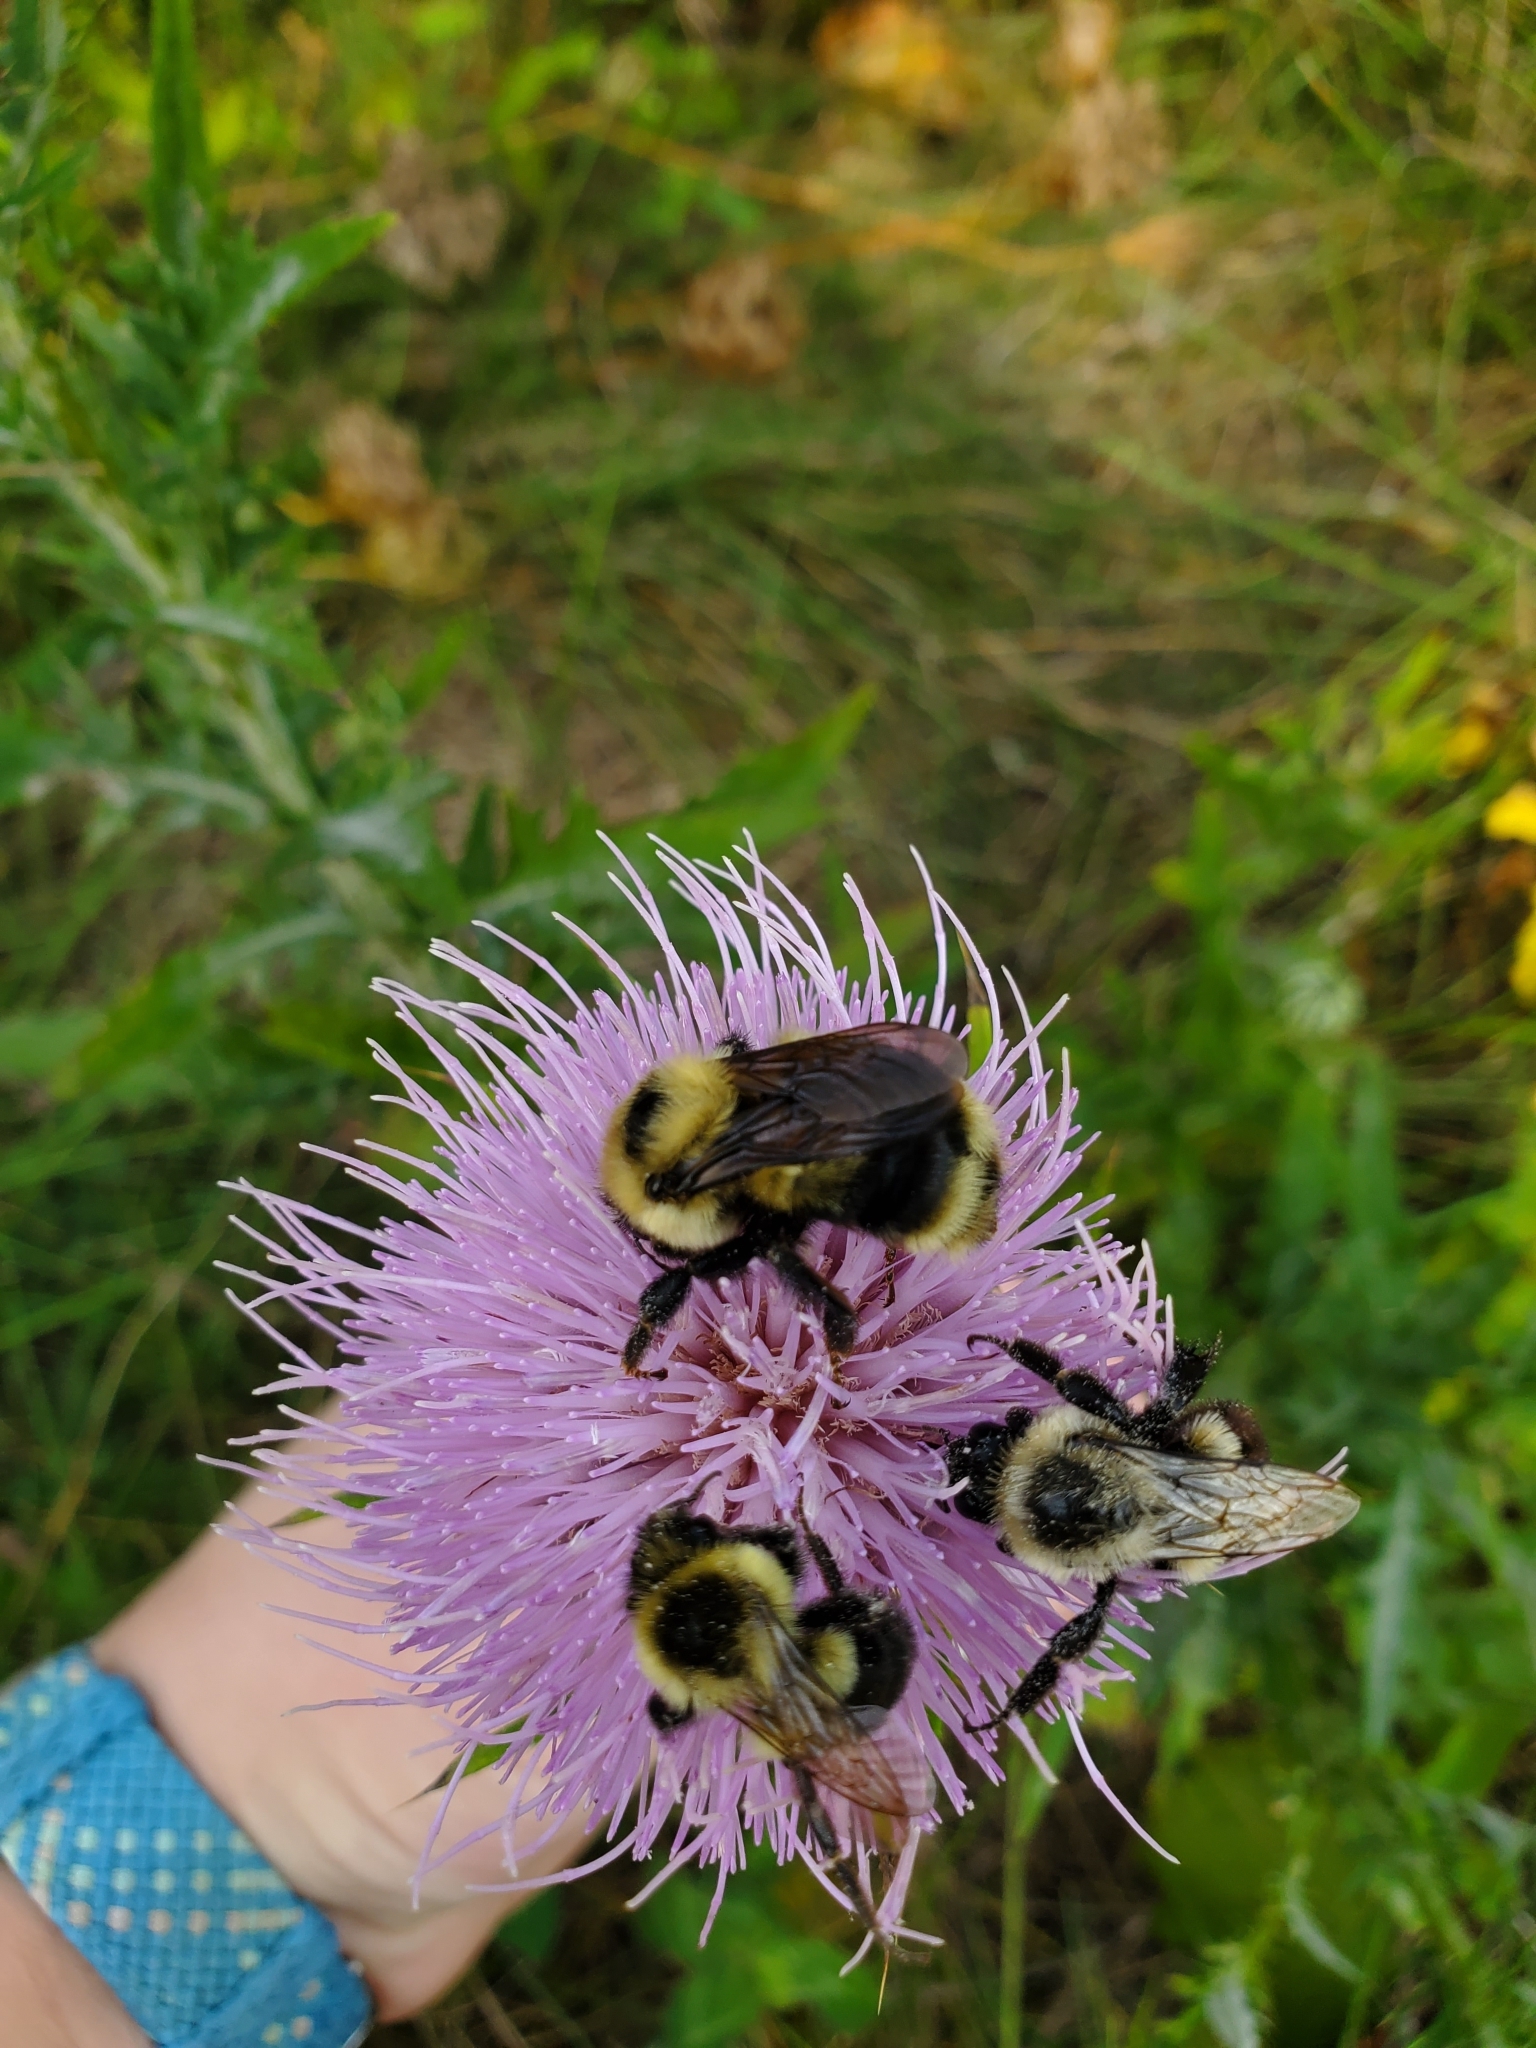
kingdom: Animalia
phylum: Arthropoda
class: Insecta
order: Hymenoptera
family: Apidae
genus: Bombus
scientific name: Bombus impatiens
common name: Common eastern bumble bee
